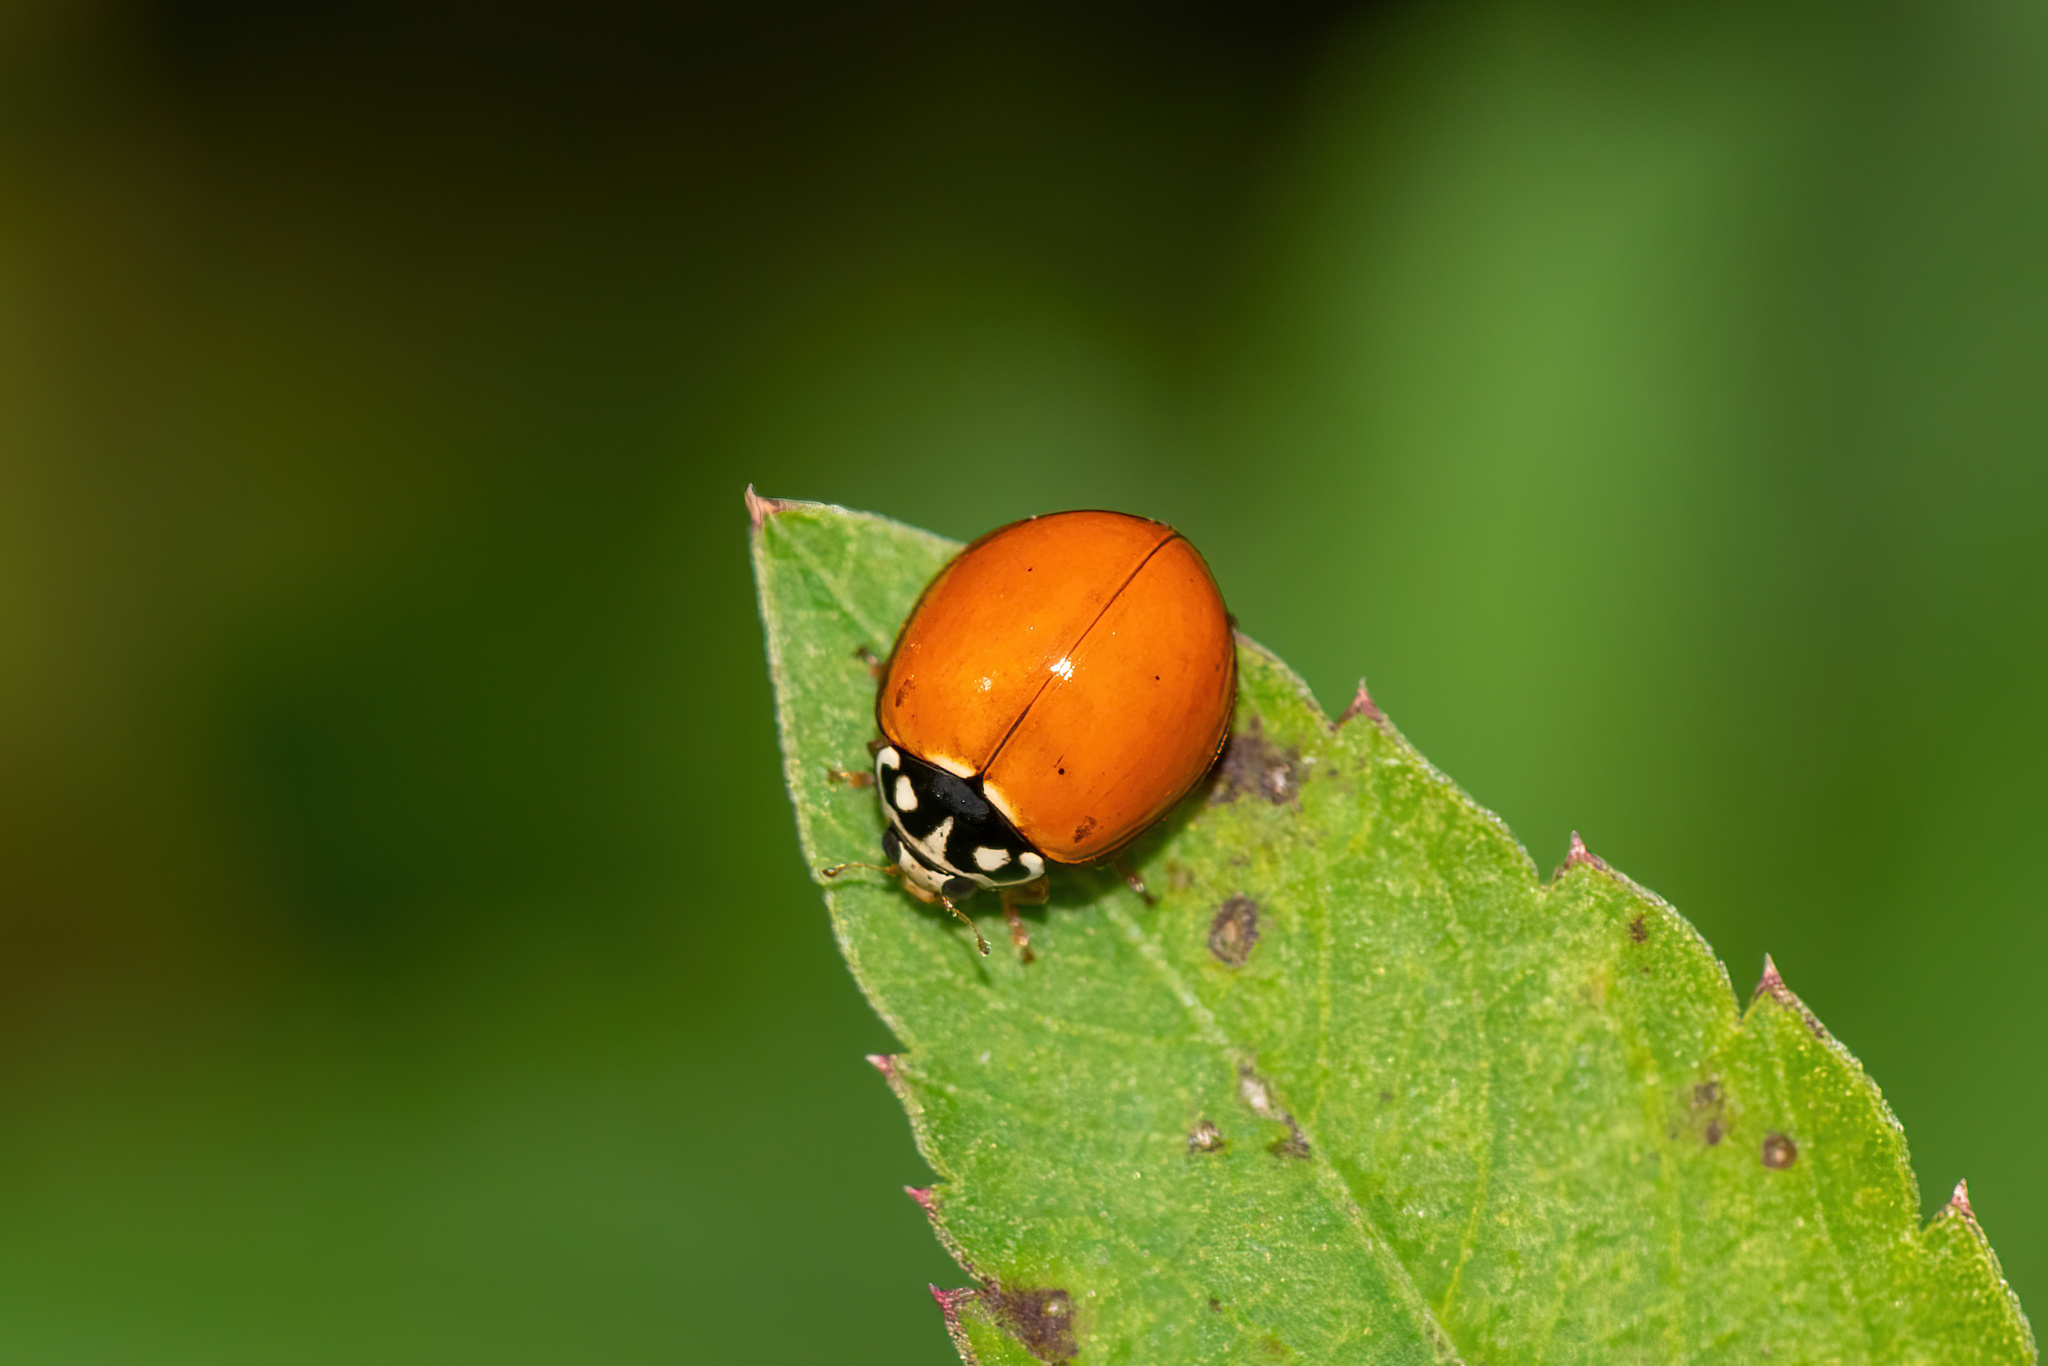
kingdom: Animalia
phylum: Arthropoda
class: Insecta
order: Coleoptera
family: Coccinellidae
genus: Cycloneda
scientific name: Cycloneda sanguinea
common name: Ladybird beetle
